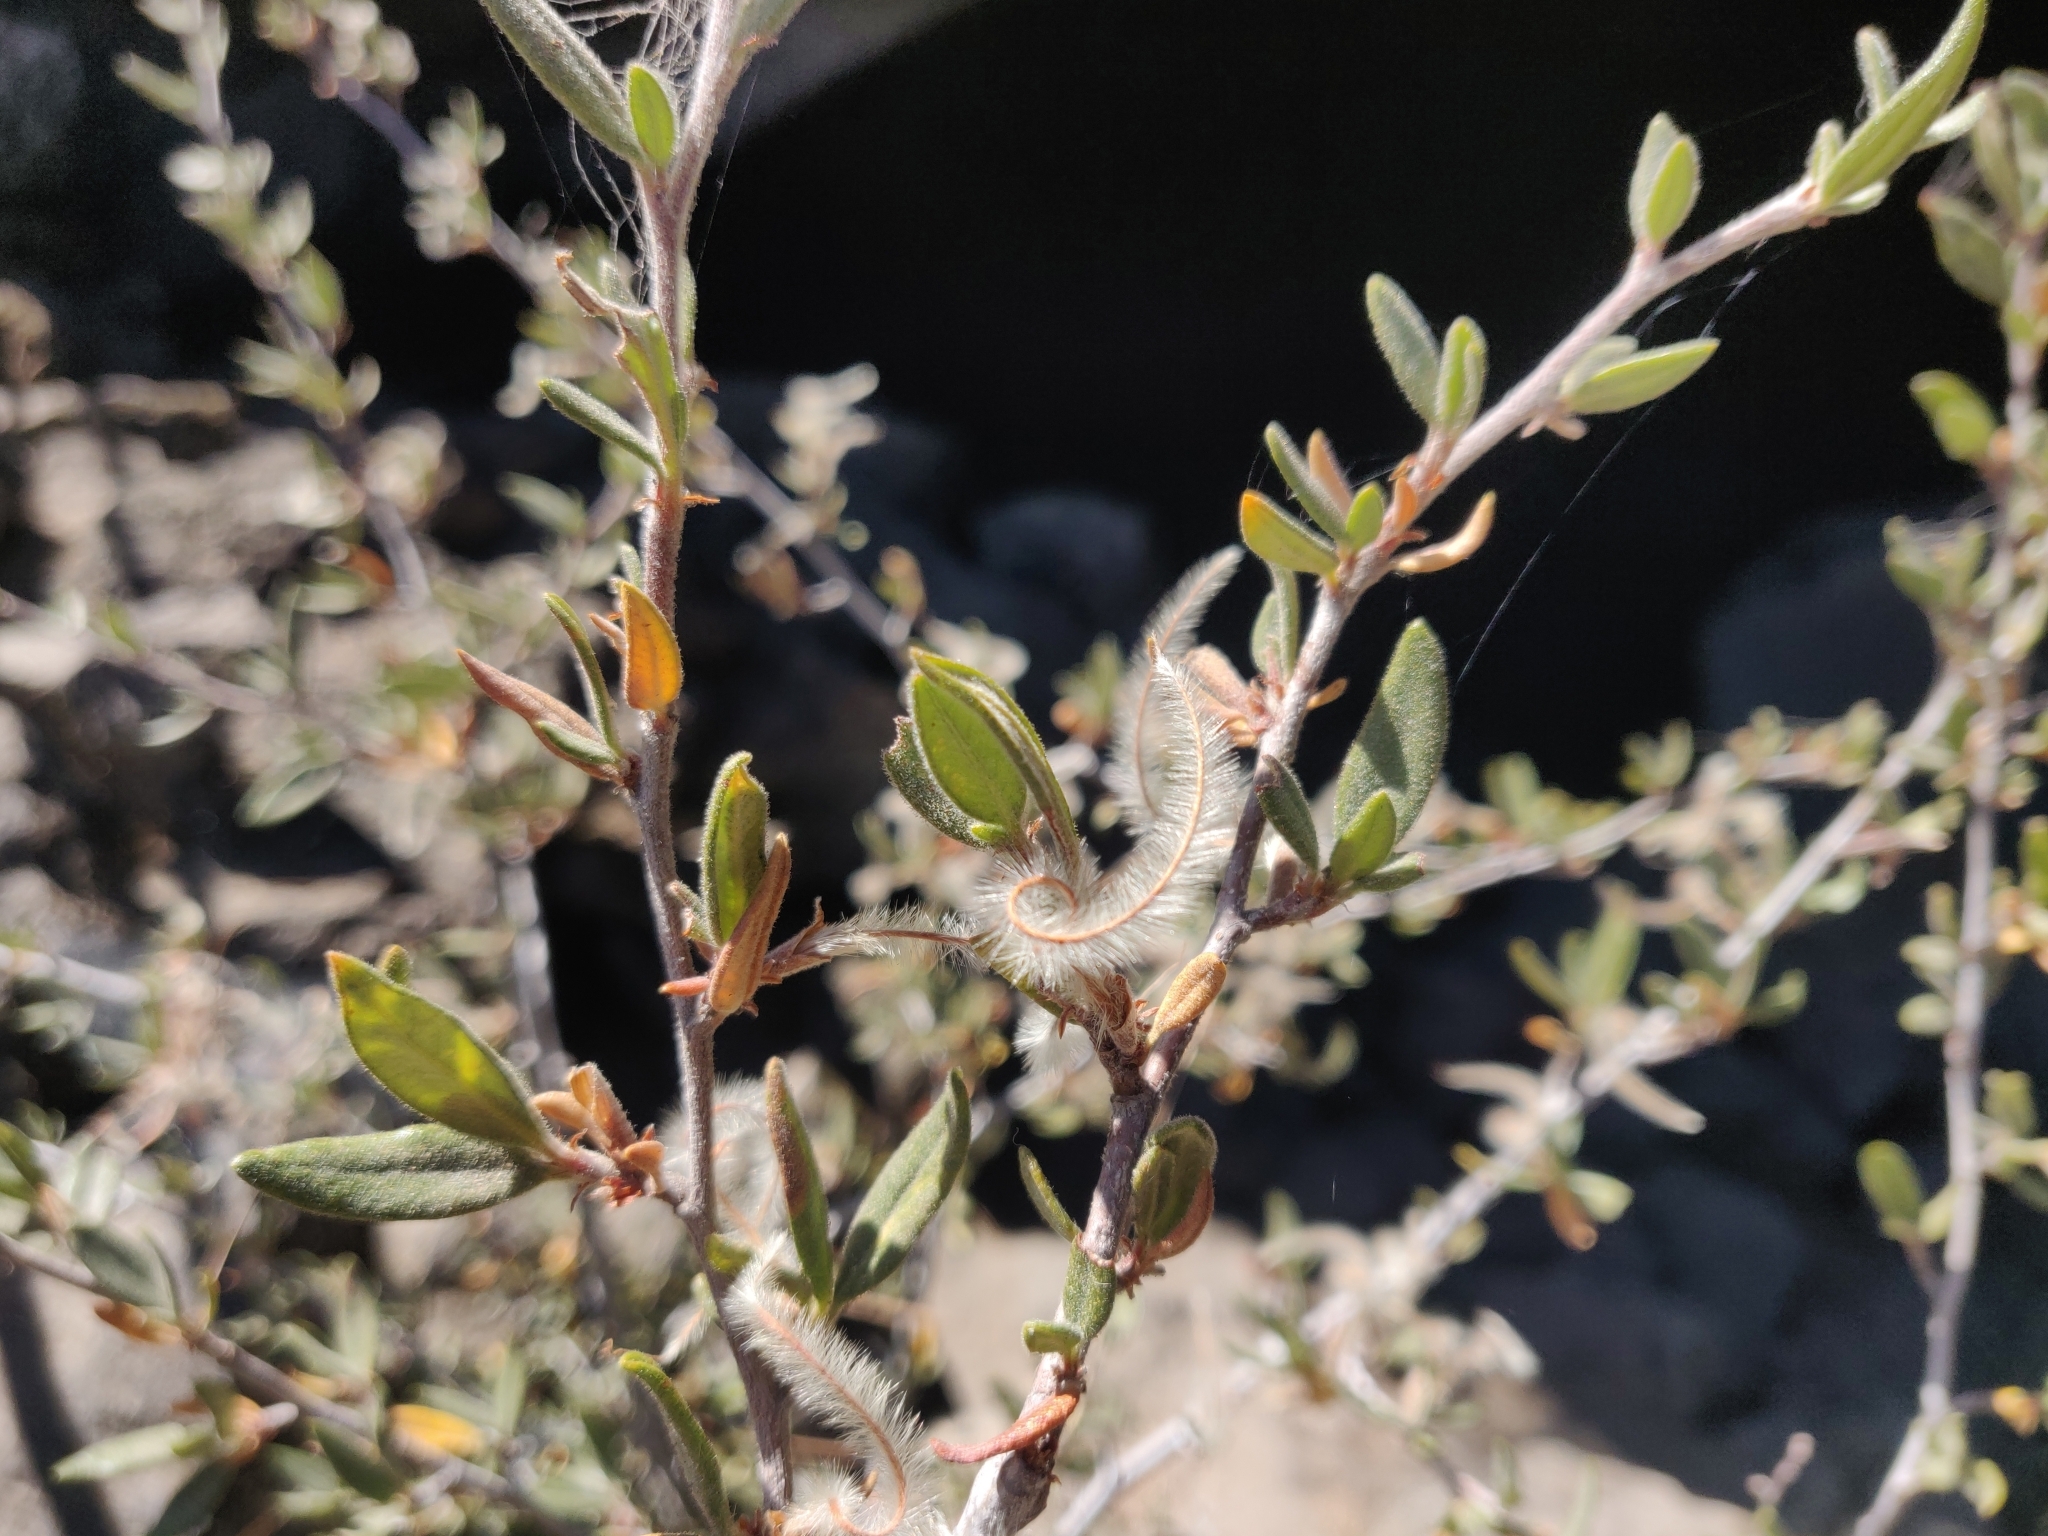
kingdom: Plantae
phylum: Tracheophyta
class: Magnoliopsida
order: Rosales
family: Rosaceae
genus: Cercocarpus
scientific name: Cercocarpus ledifolius
